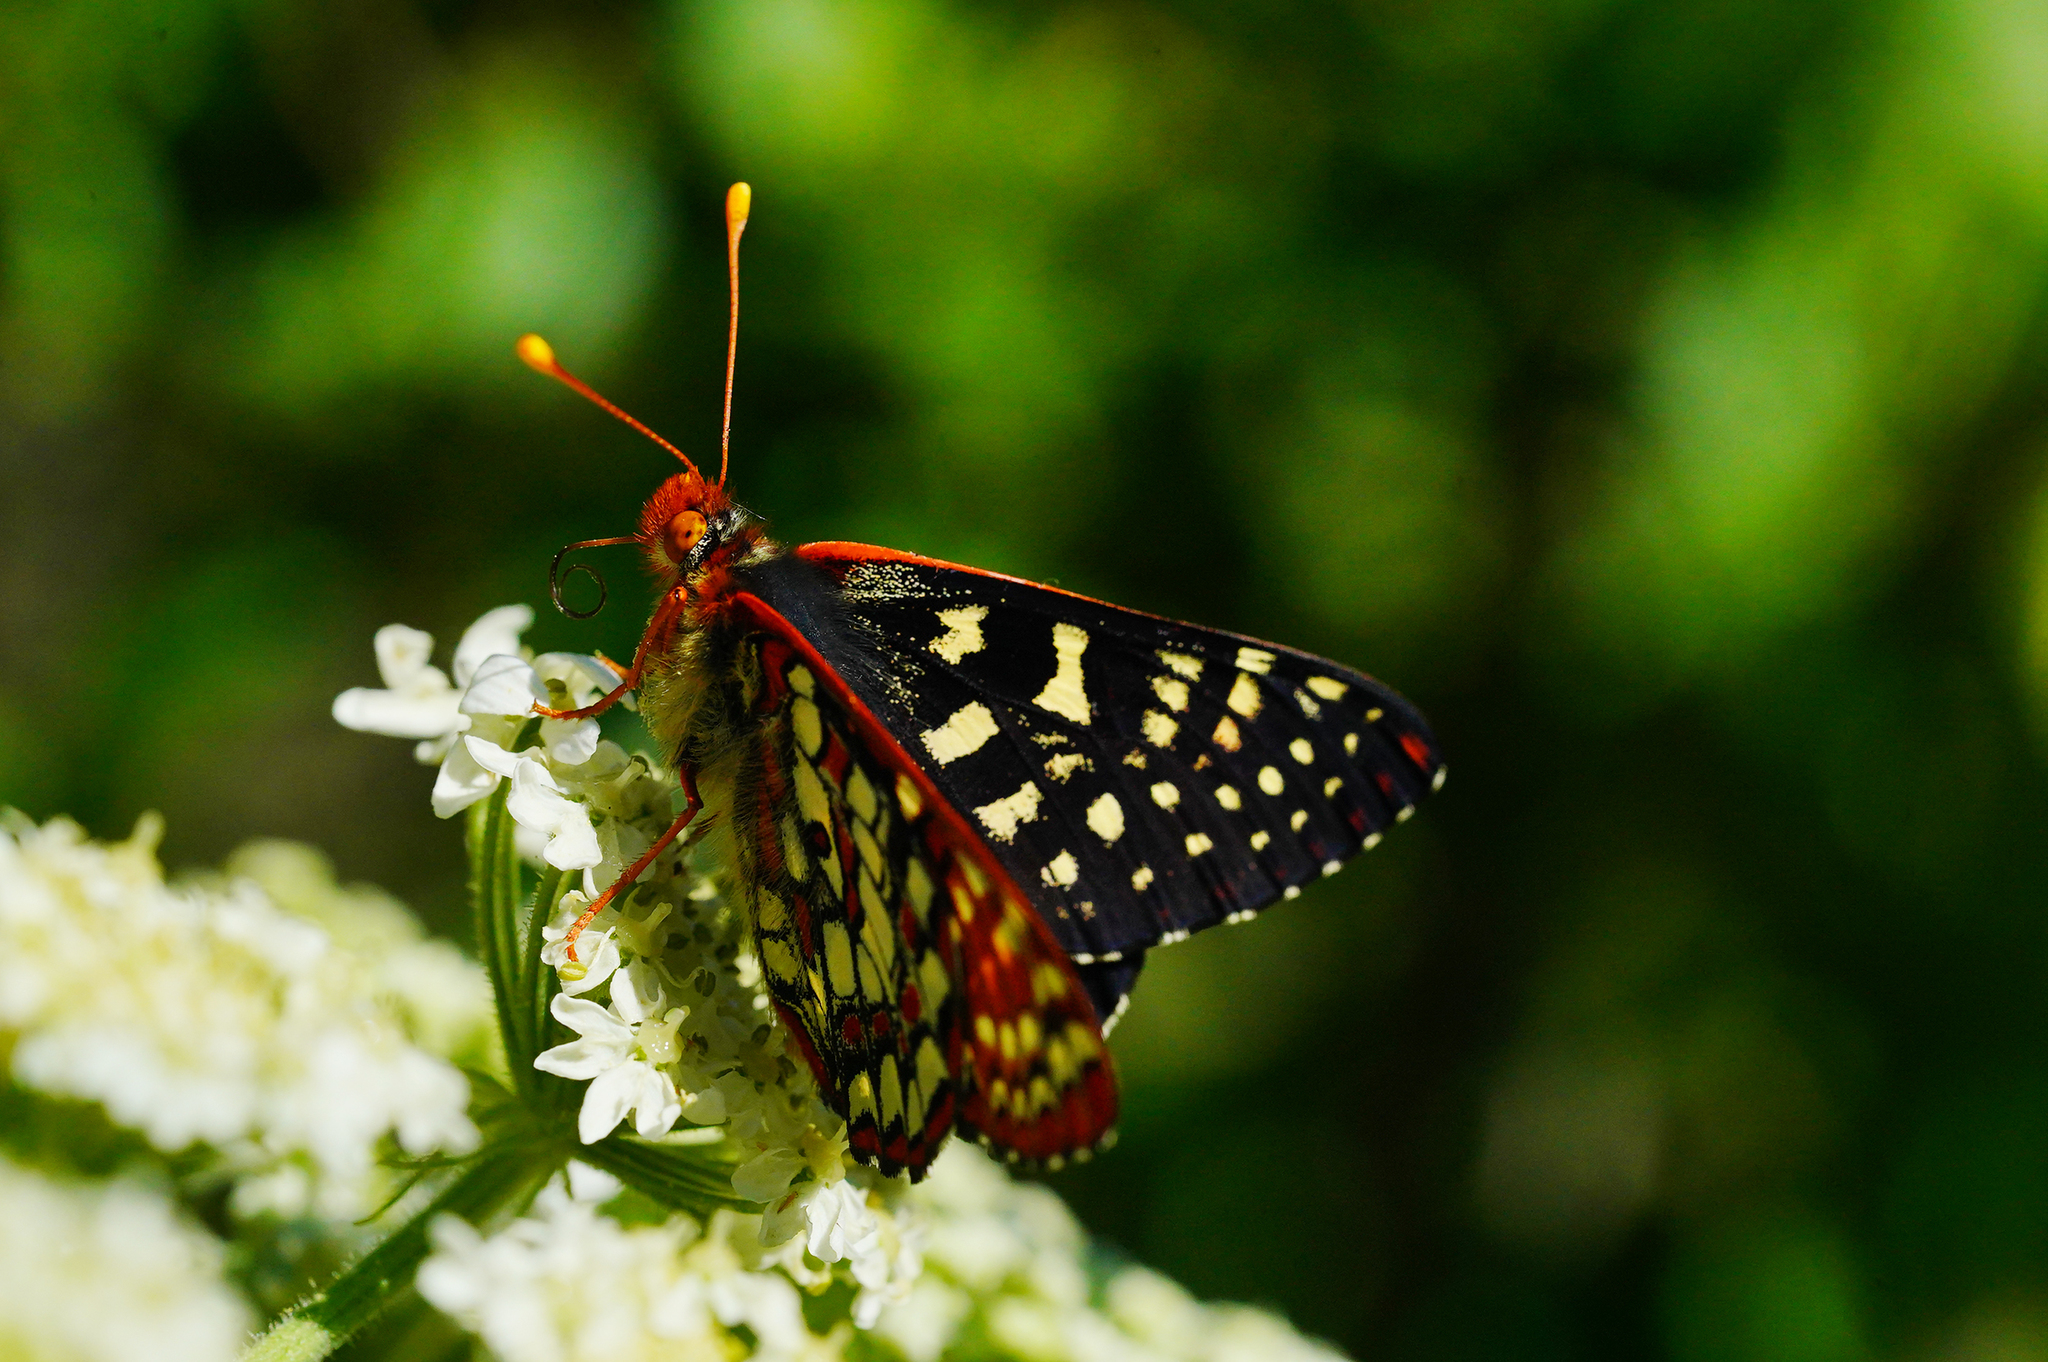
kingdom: Animalia
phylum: Arthropoda
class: Insecta
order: Lepidoptera
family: Nymphalidae
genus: Occidryas
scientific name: Occidryas chalcedona
